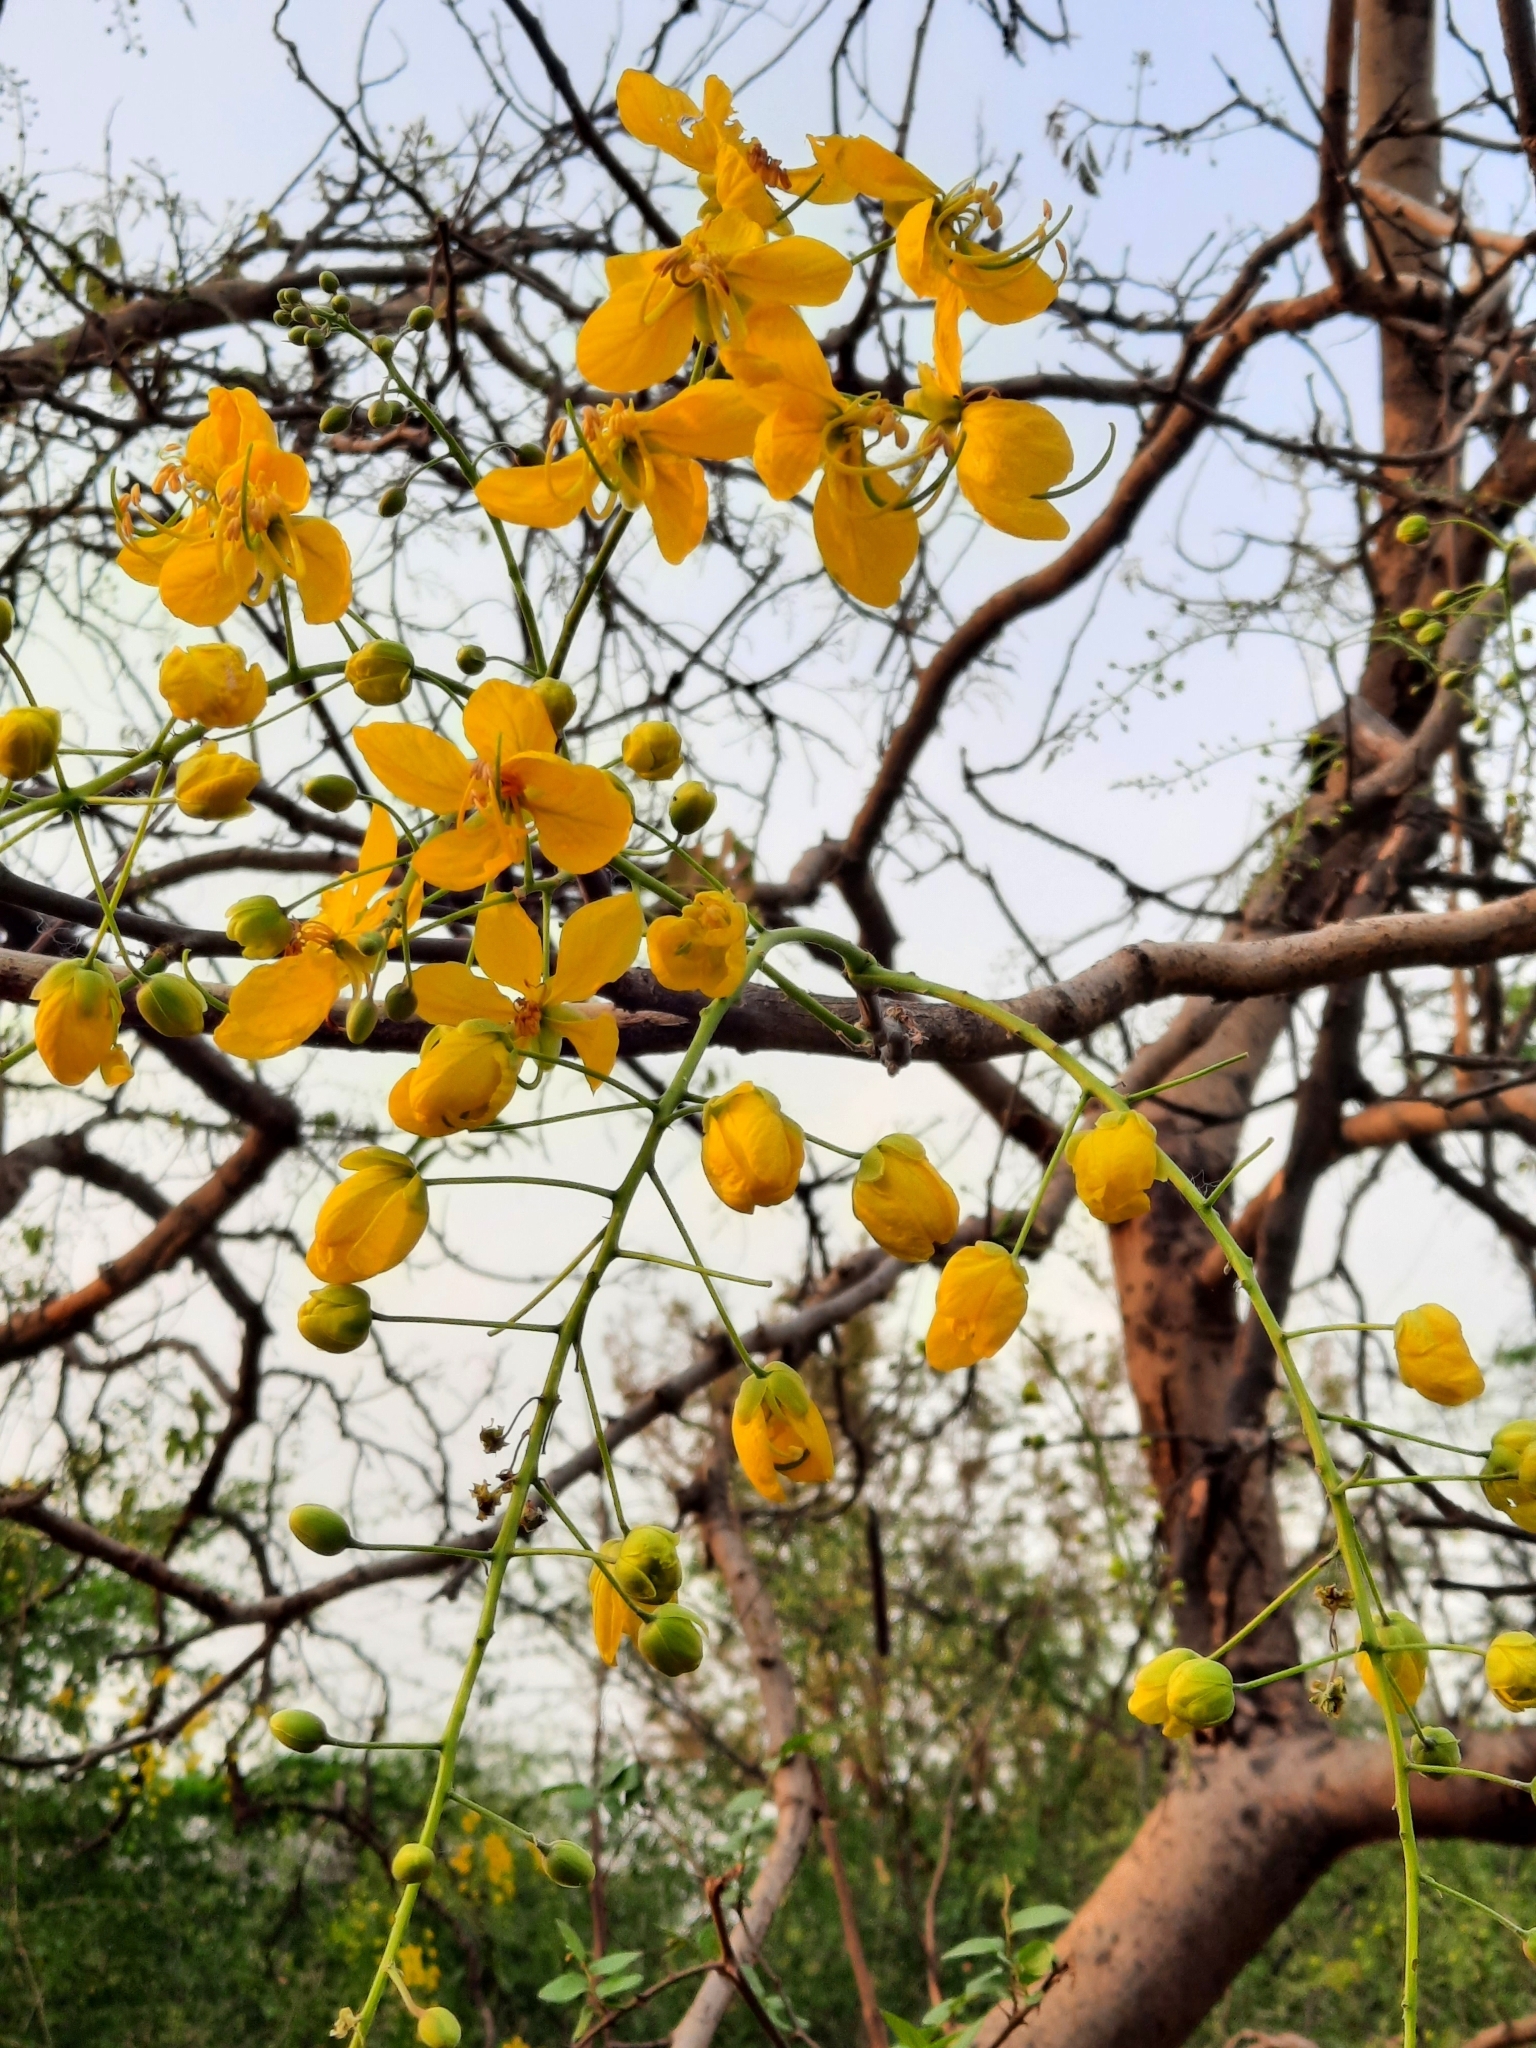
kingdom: Plantae
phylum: Tracheophyta
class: Magnoliopsida
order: Fabales
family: Fabaceae
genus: Cassia
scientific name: Cassia fistula
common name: Golden shower
